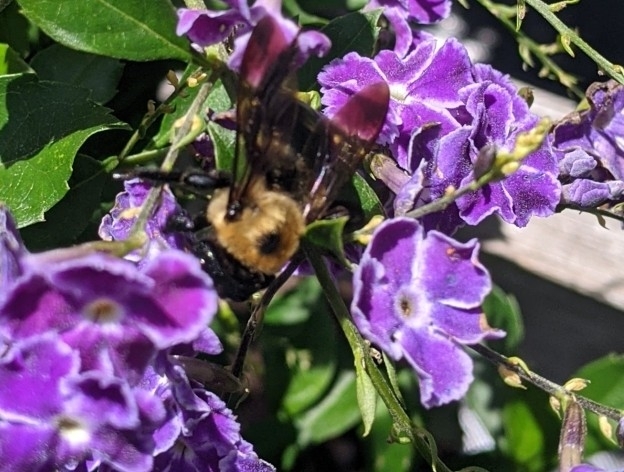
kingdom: Animalia
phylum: Arthropoda
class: Insecta
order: Hymenoptera
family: Apidae
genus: Xylocopa
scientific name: Xylocopa virginica
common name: Carpenter bee
